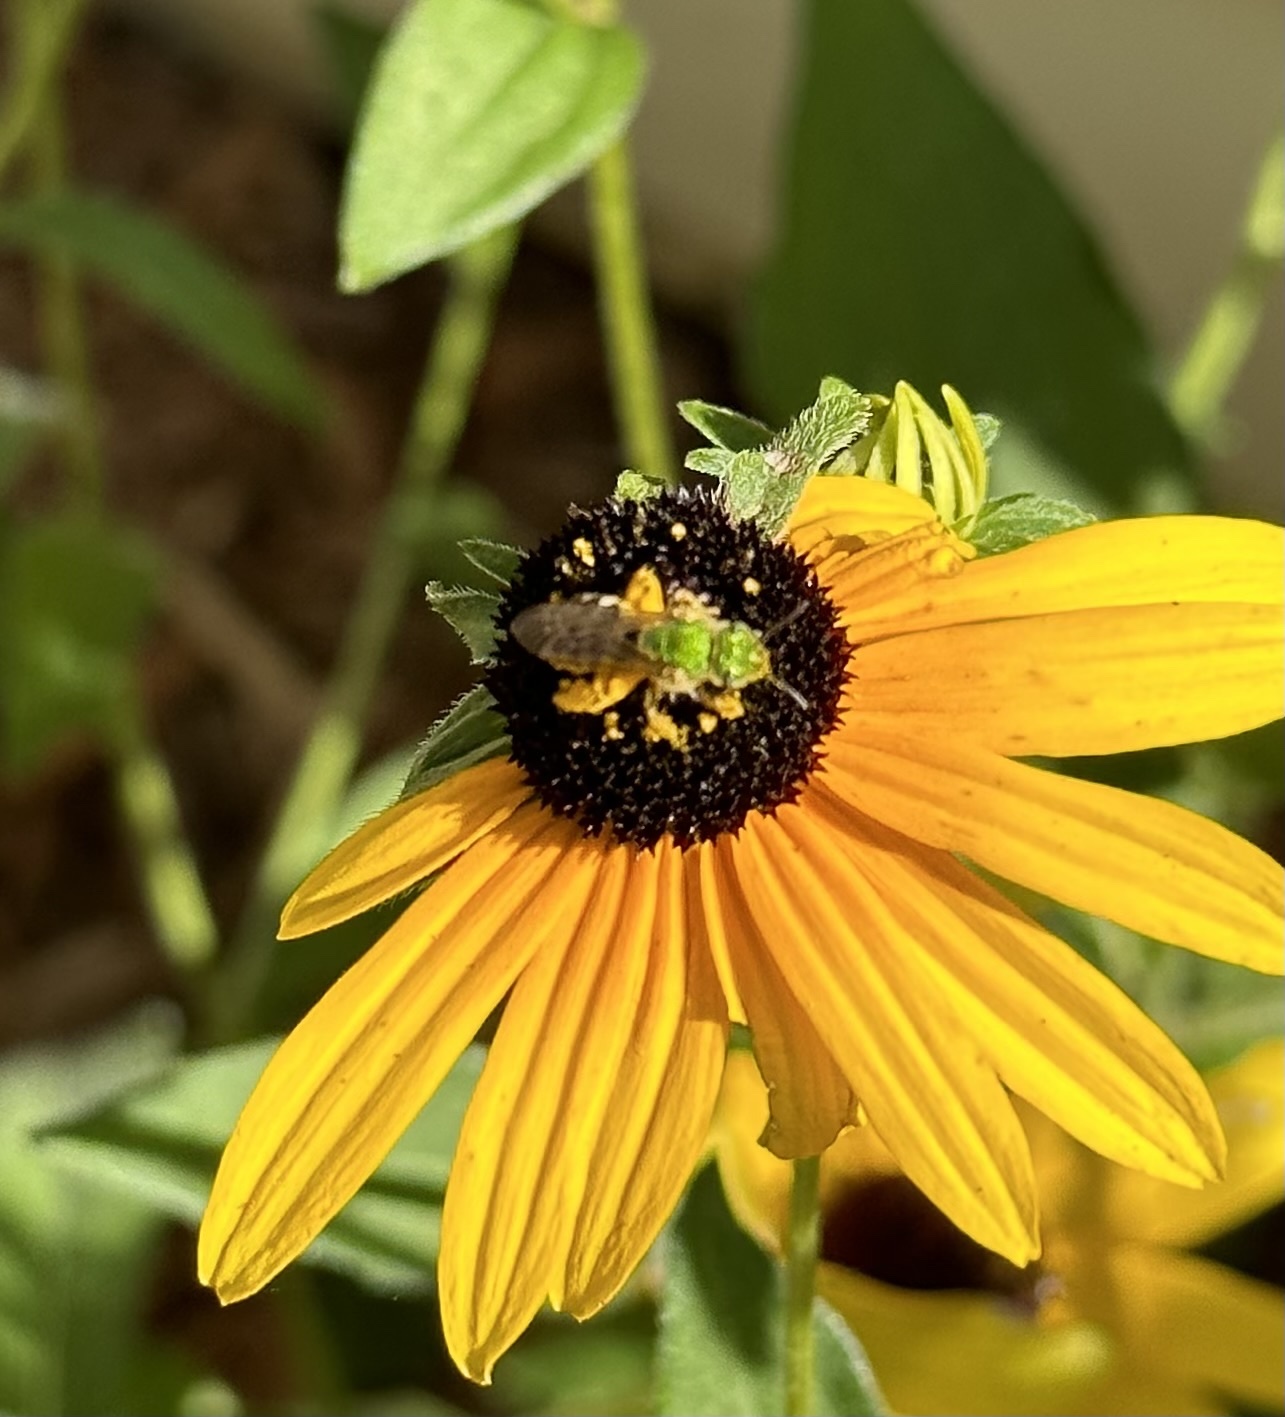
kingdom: Animalia
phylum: Arthropoda
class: Insecta
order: Hymenoptera
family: Halictidae
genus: Agapostemon
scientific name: Agapostemon virescens
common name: Bicolored striped sweat bee
